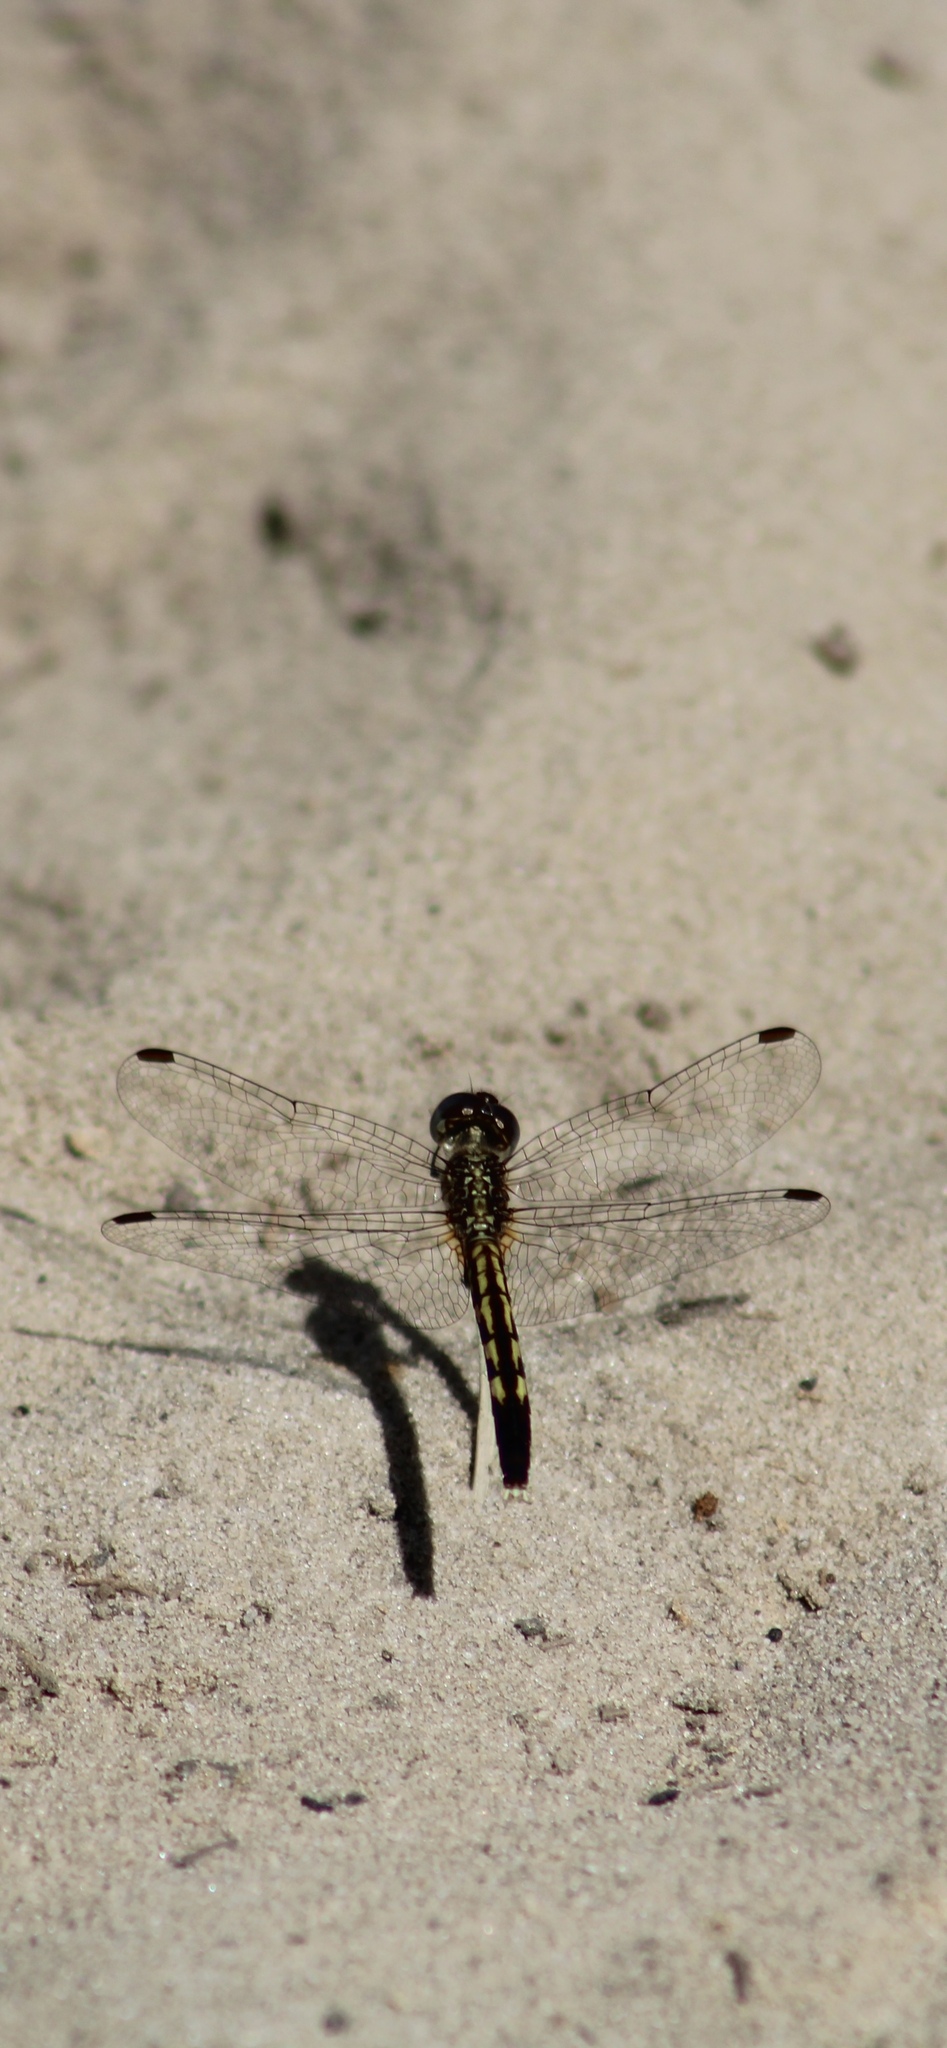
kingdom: Animalia
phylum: Arthropoda
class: Insecta
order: Odonata
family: Libellulidae
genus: Erythrodiplax
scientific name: Erythrodiplax minuscula
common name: Little blue dragonlet
